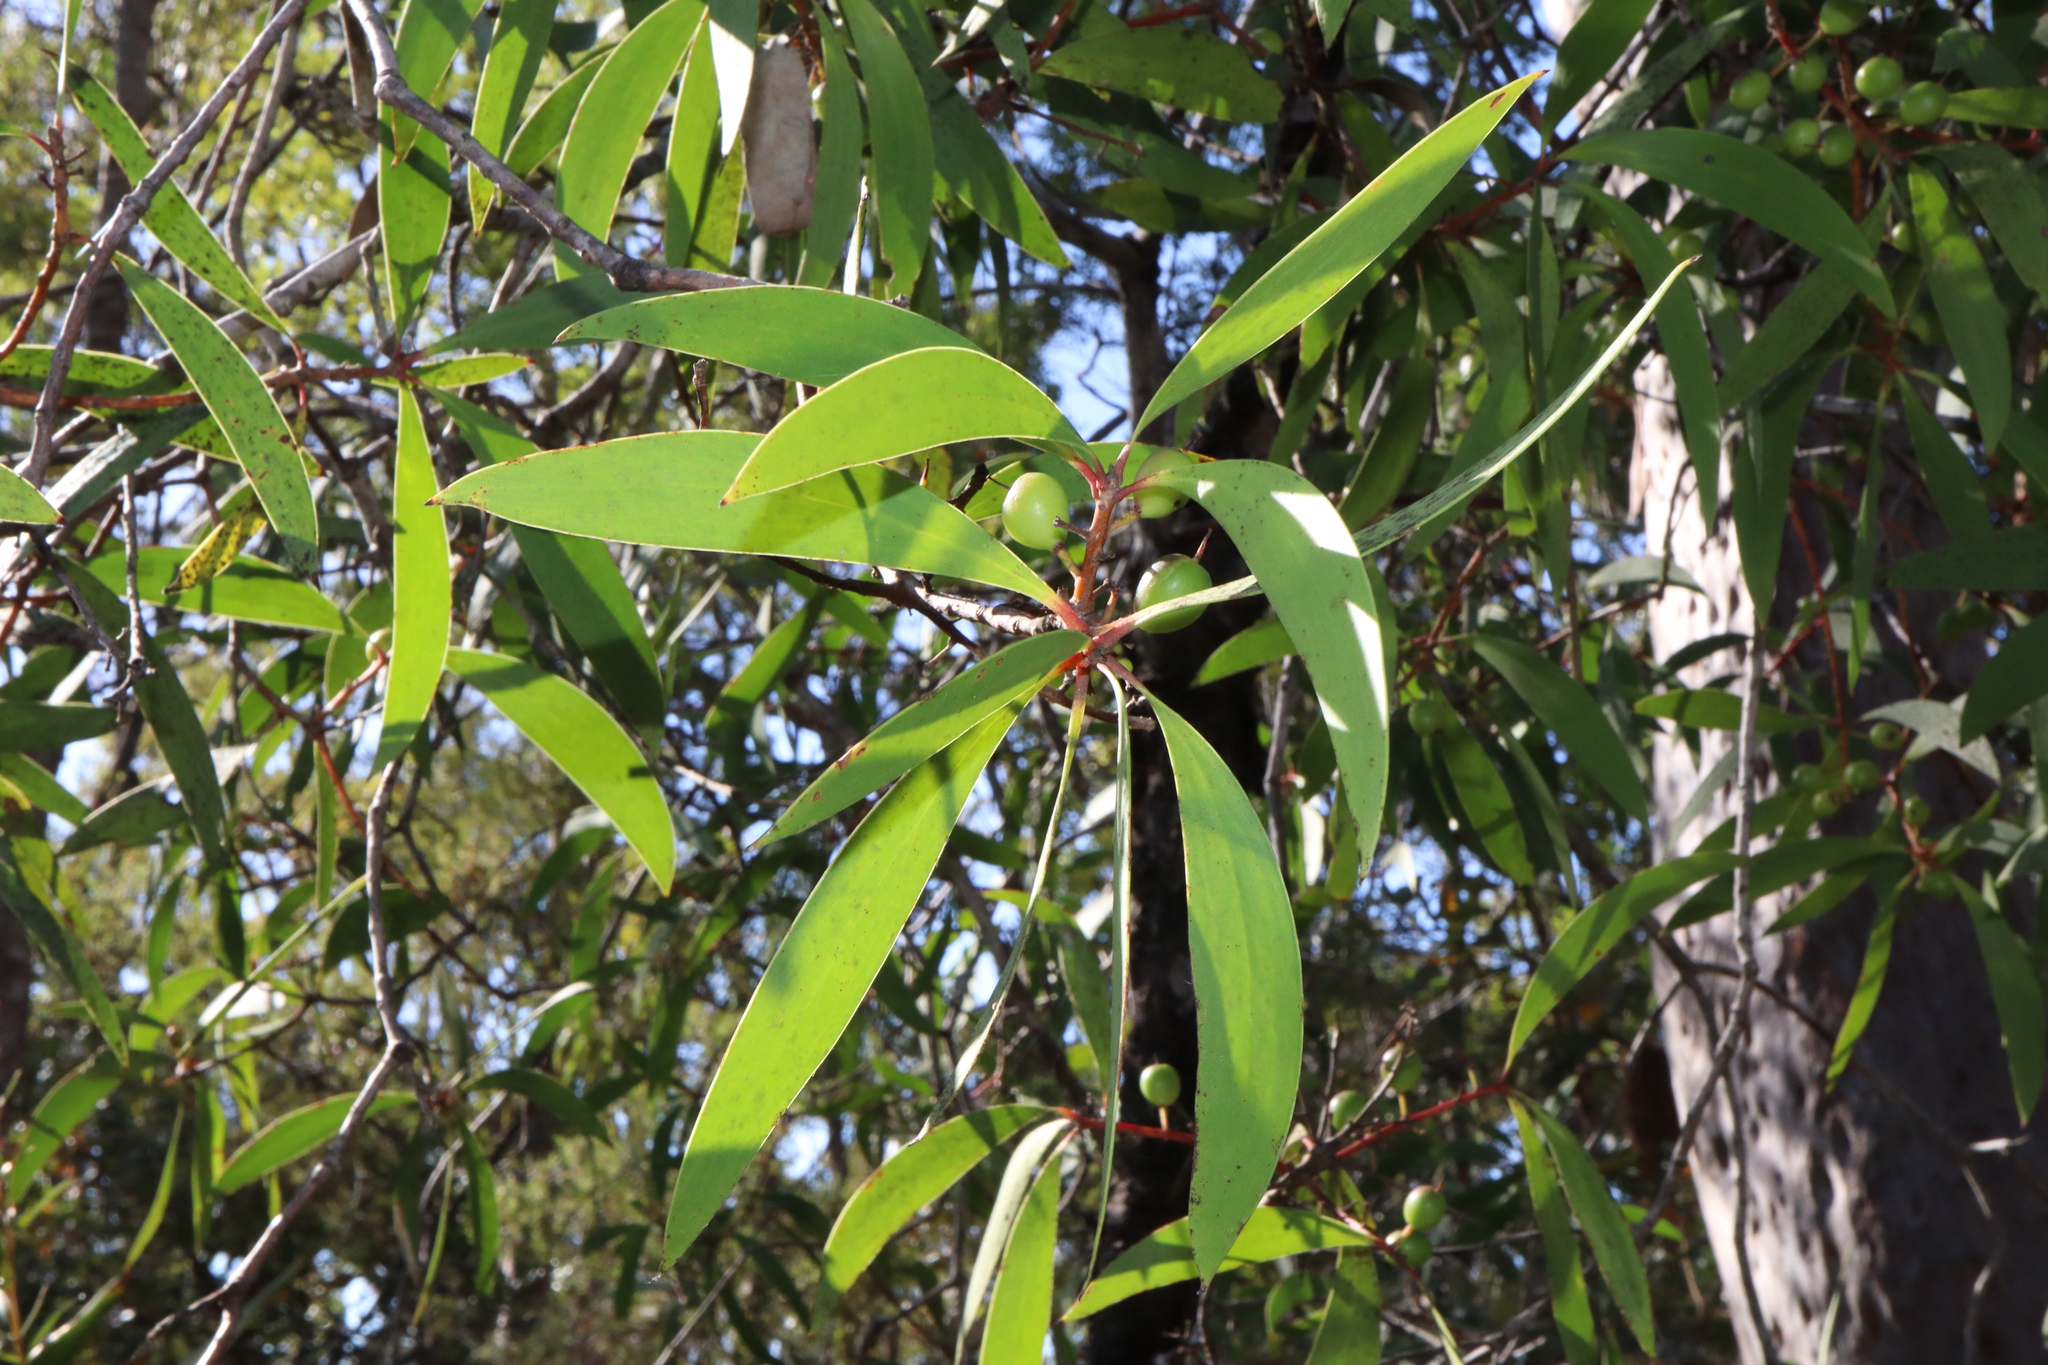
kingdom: Plantae
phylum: Tracheophyta
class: Magnoliopsida
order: Proteales
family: Proteaceae
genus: Persoonia
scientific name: Persoonia levis
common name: Smooth geebung
